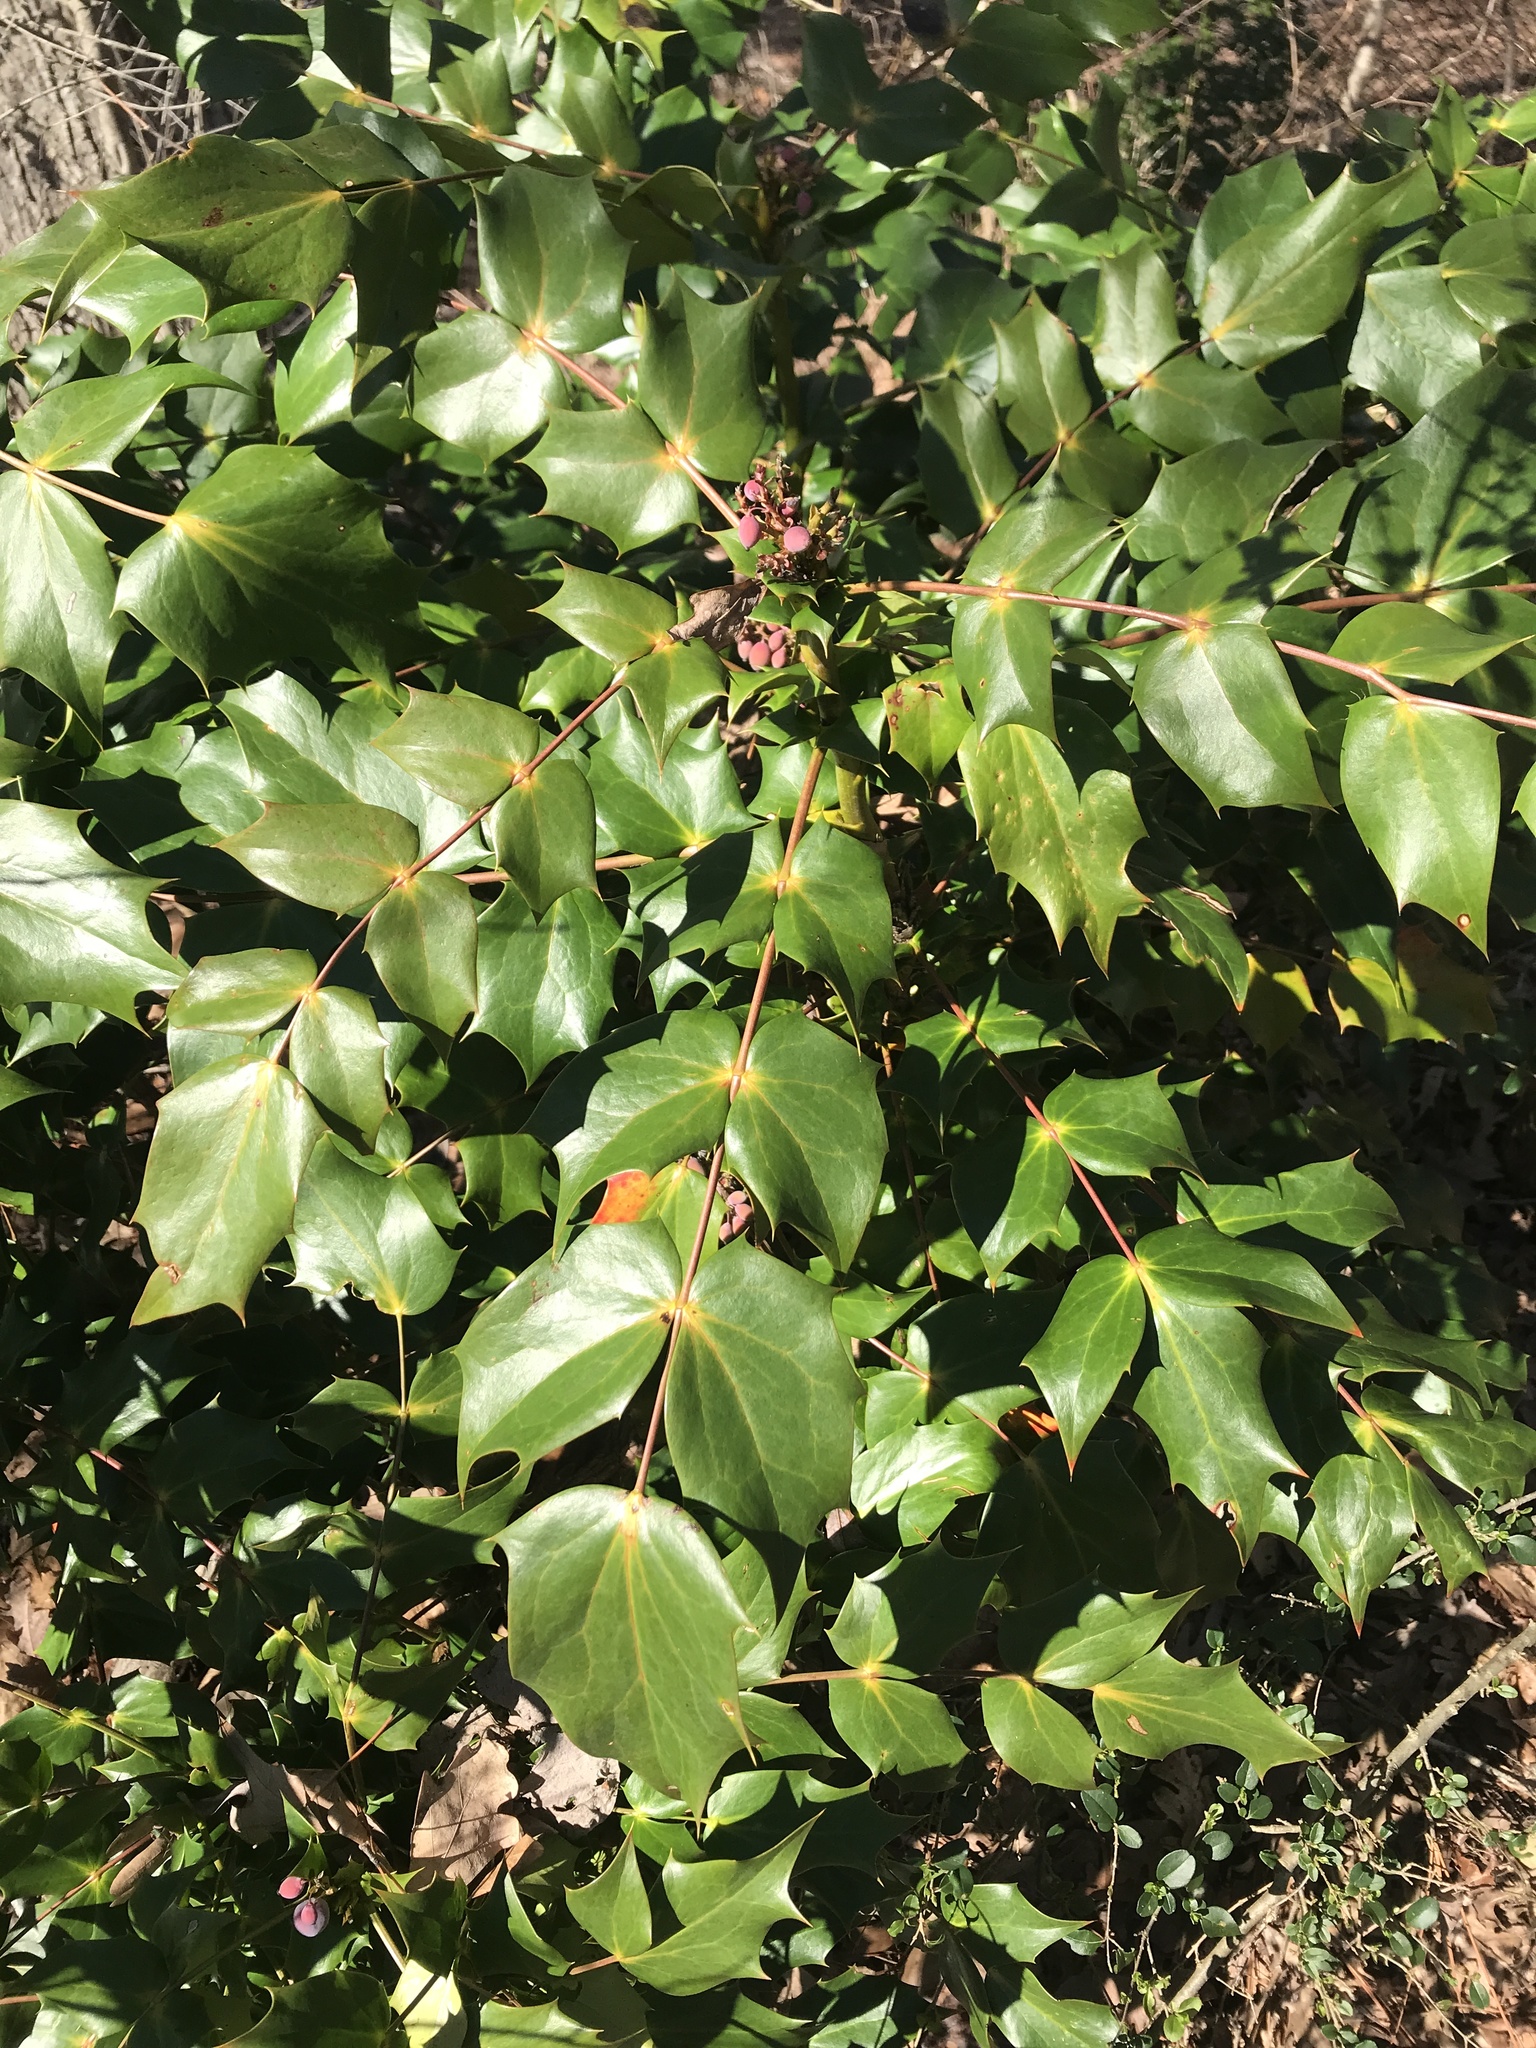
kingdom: Plantae
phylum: Tracheophyta
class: Magnoliopsida
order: Ranunculales
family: Berberidaceae
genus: Mahonia
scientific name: Mahonia bealei
